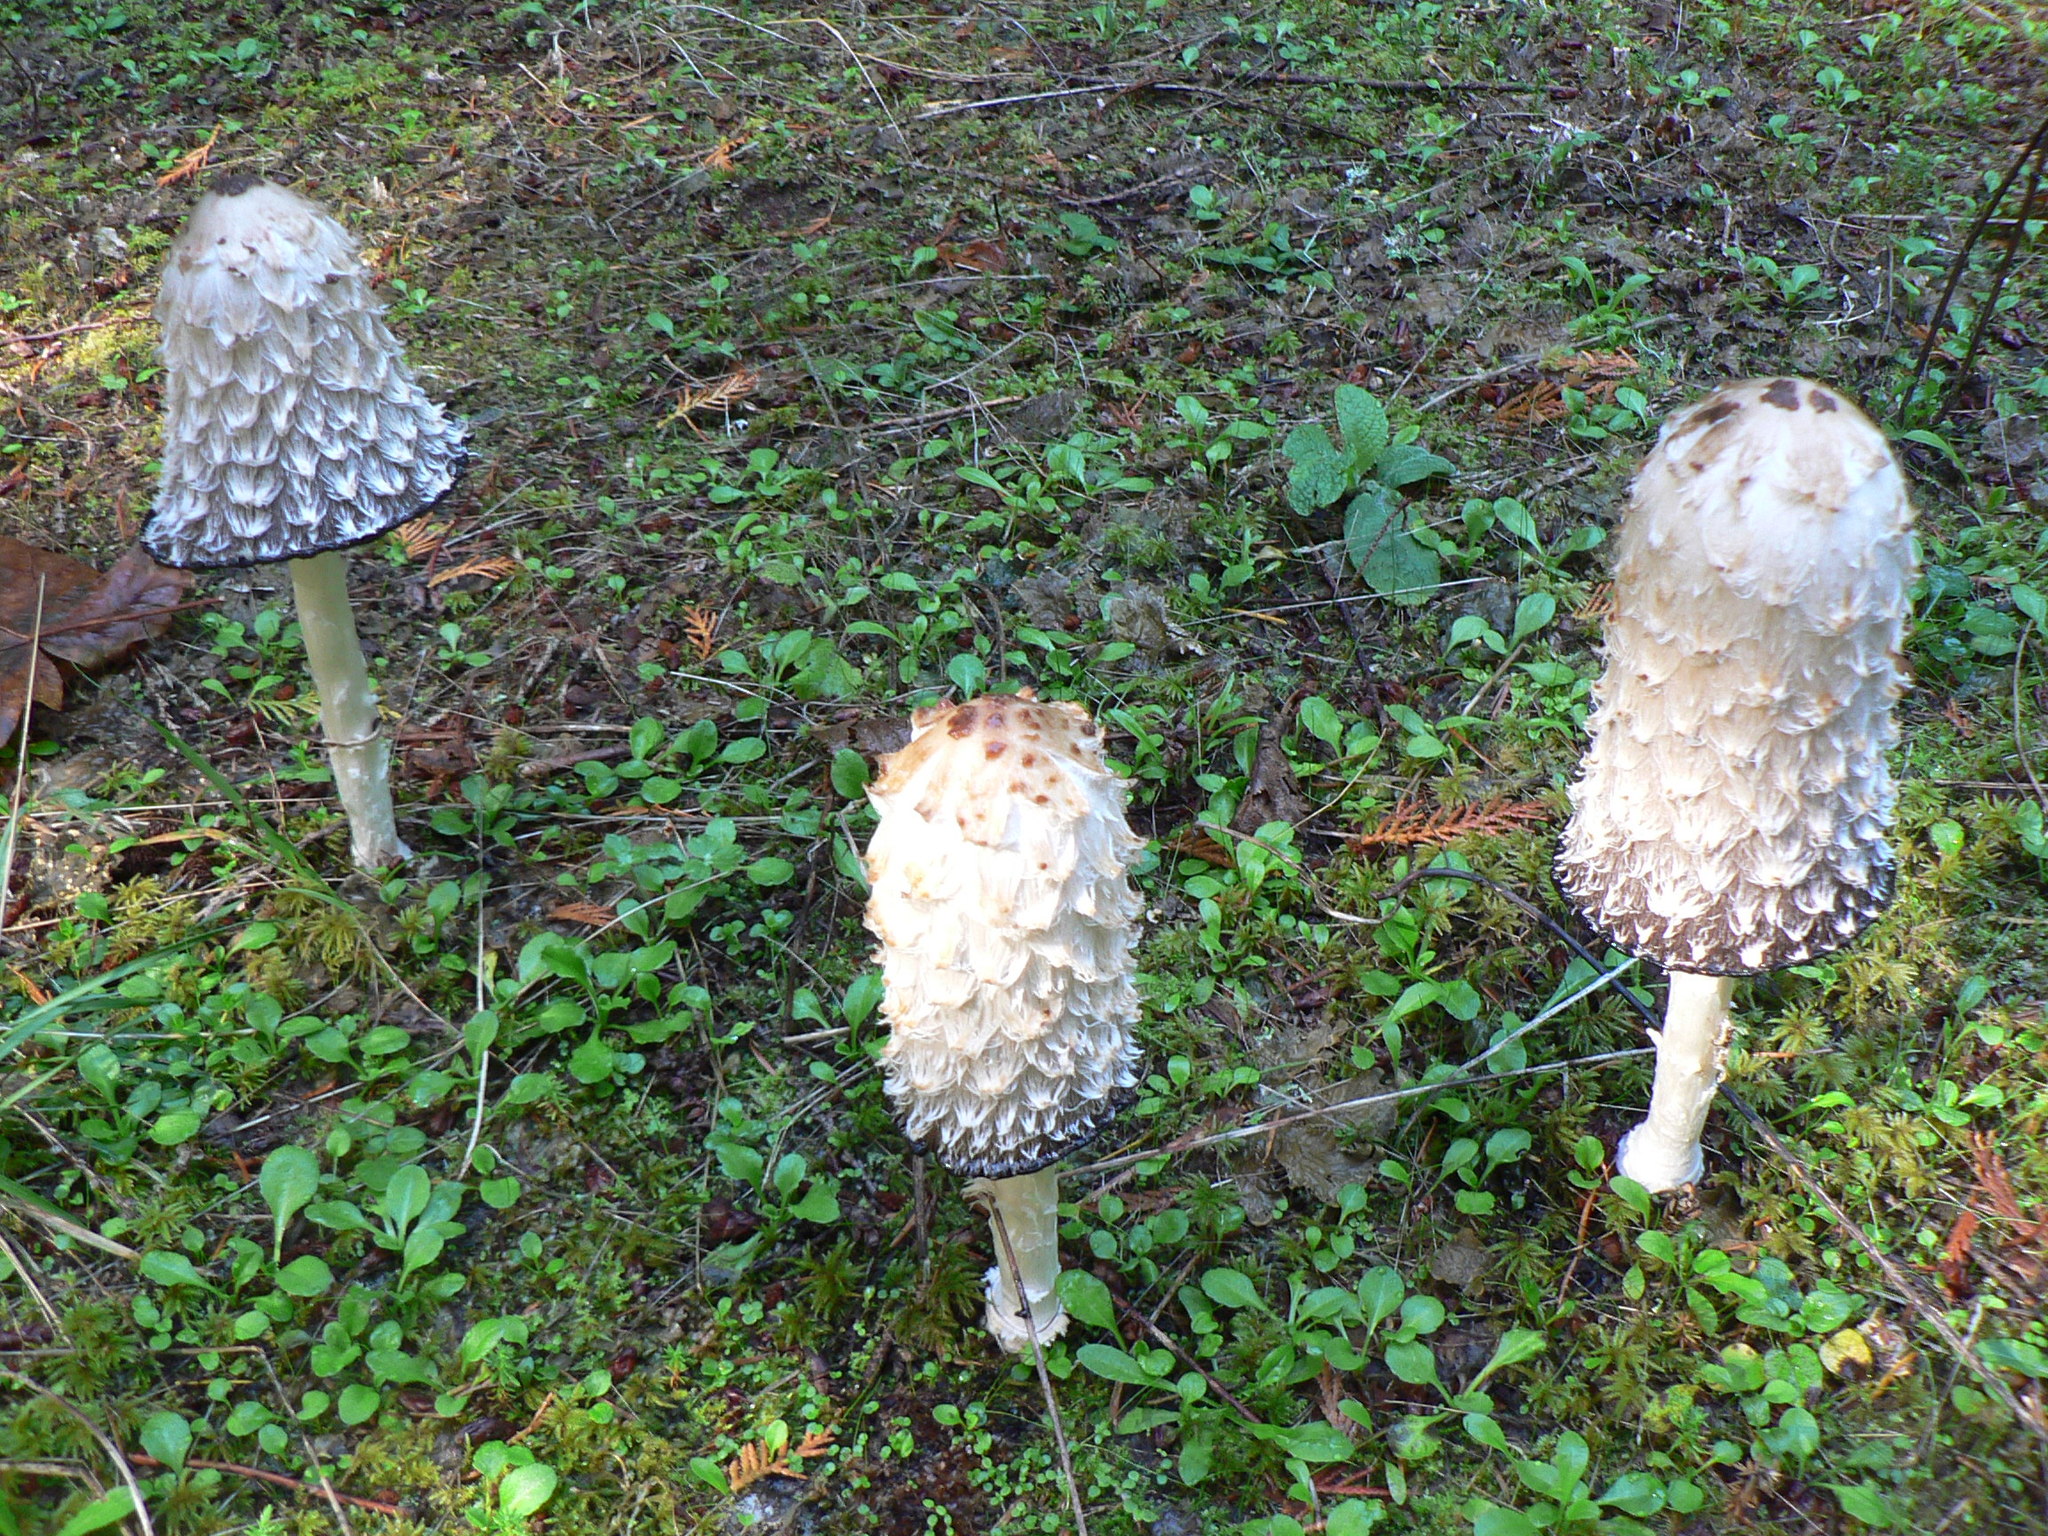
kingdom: Fungi
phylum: Basidiomycota
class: Agaricomycetes
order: Agaricales
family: Agaricaceae
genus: Coprinus
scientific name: Coprinus comatus
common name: Lawyer's wig
